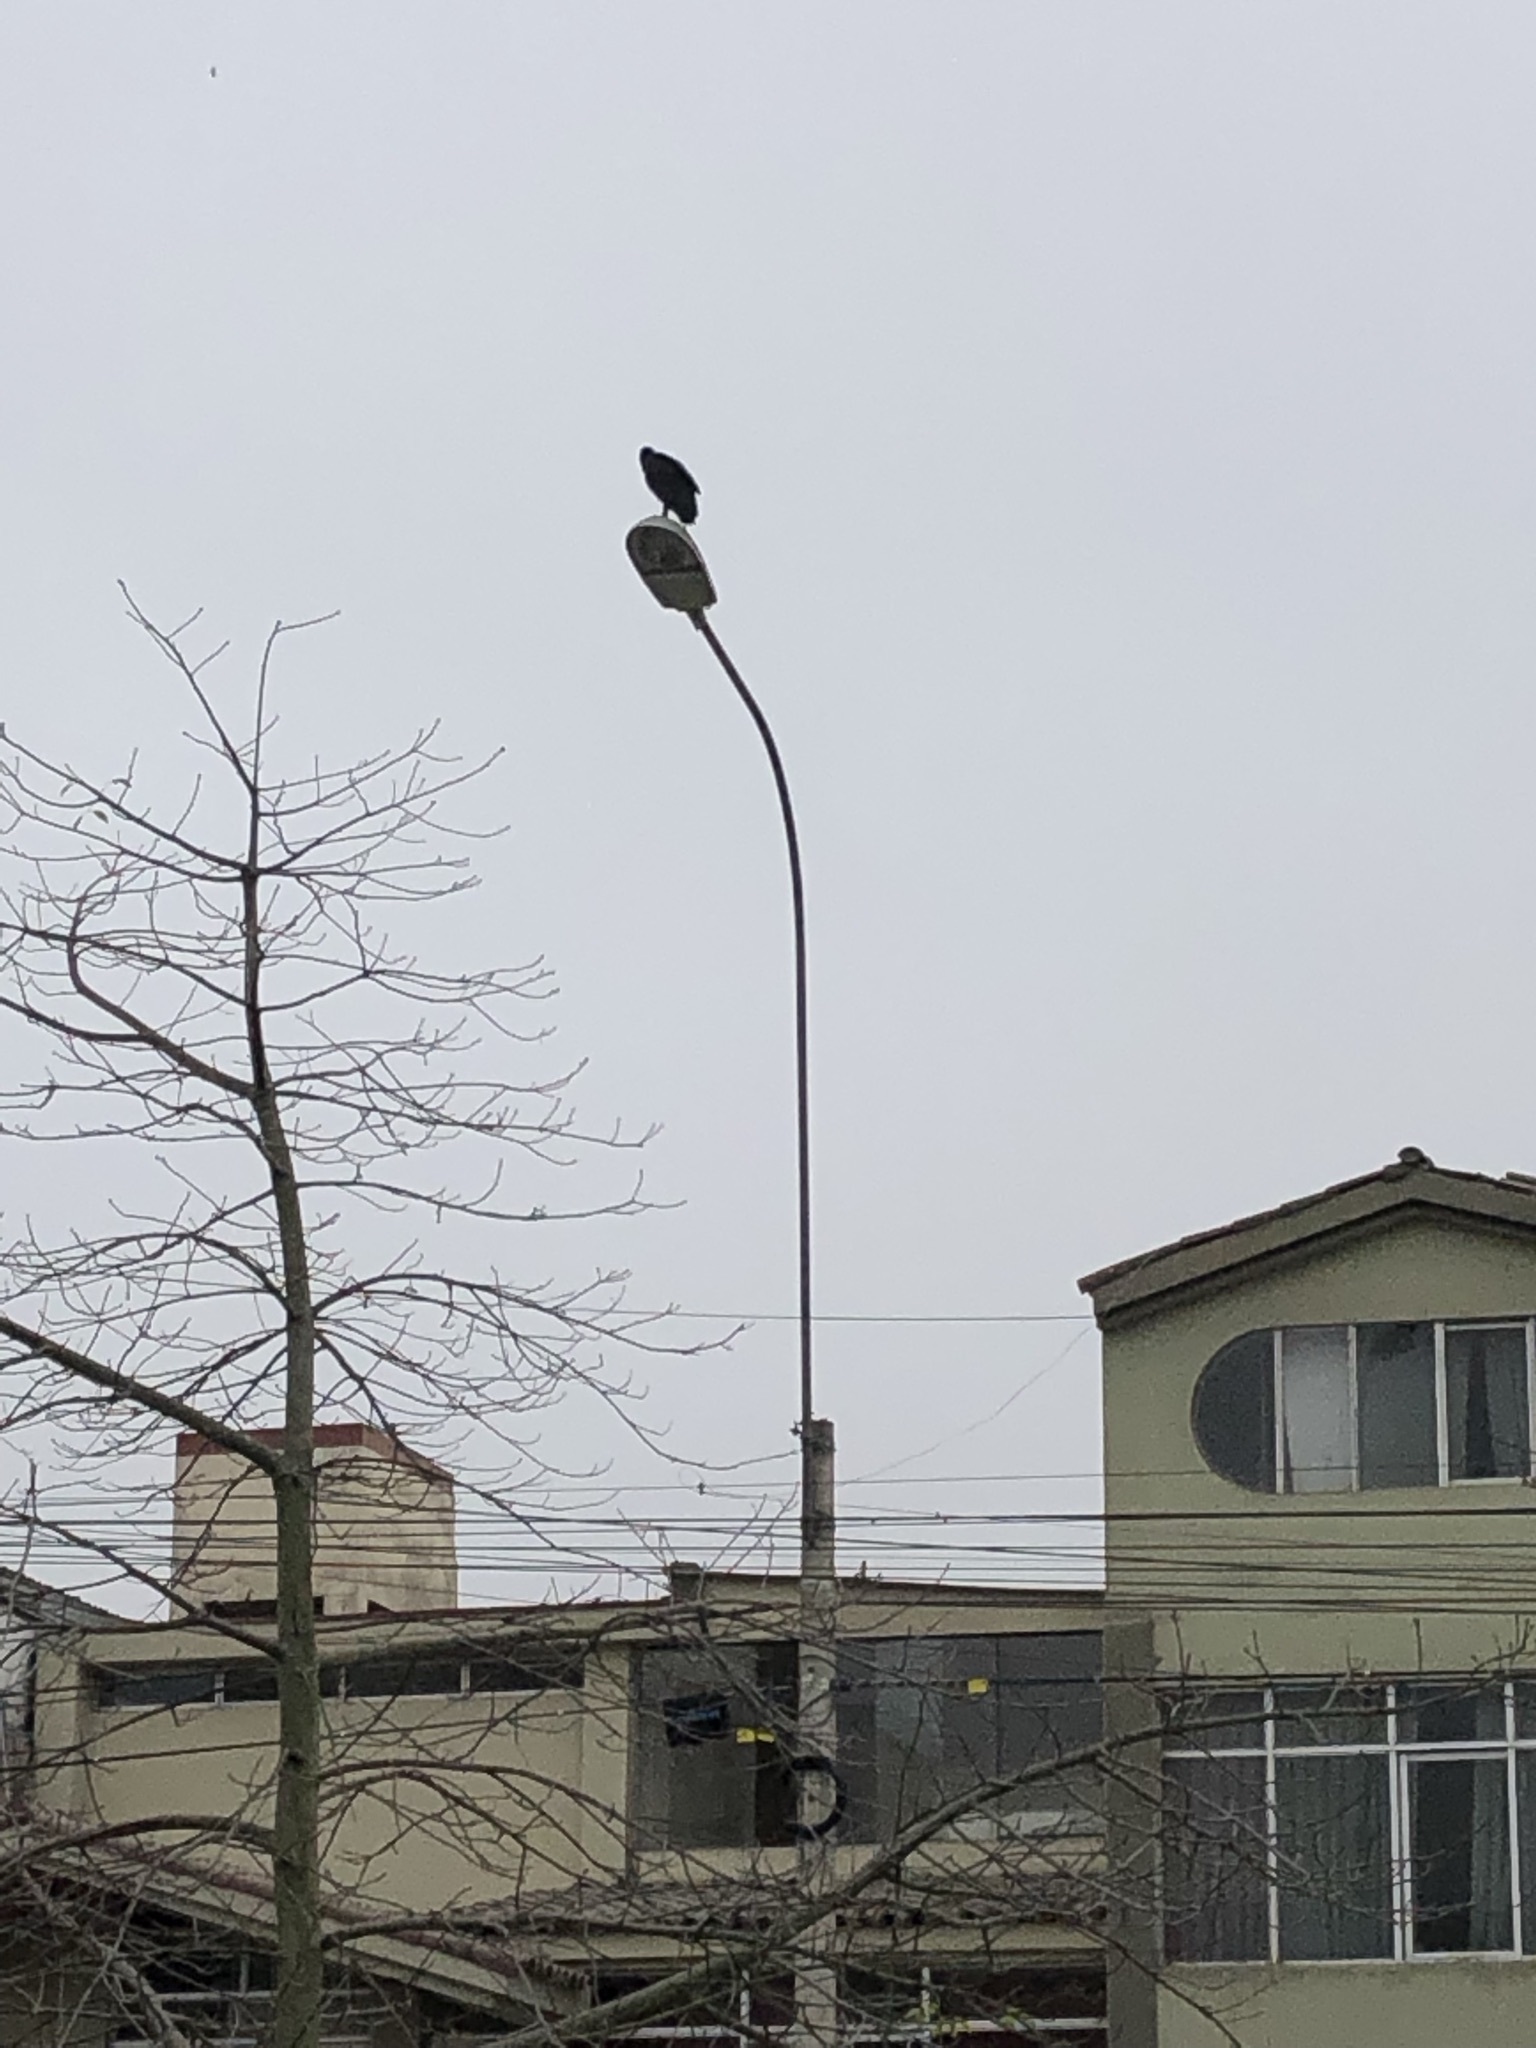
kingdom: Animalia
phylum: Chordata
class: Aves
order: Accipitriformes
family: Cathartidae
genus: Coragyps
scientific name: Coragyps atratus
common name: Black vulture
